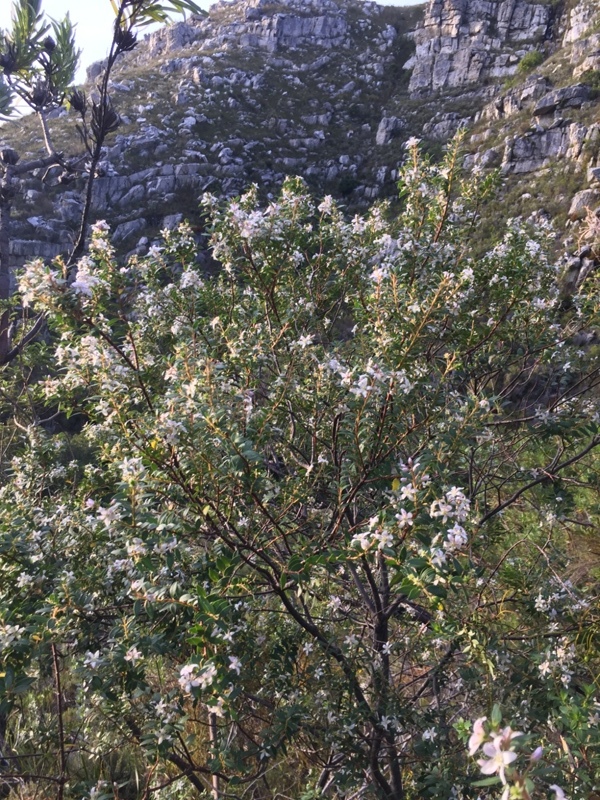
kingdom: Plantae
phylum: Tracheophyta
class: Magnoliopsida
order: Sapindales
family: Rutaceae
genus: Agathosma
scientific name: Agathosma crenulata
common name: Oval buchu
